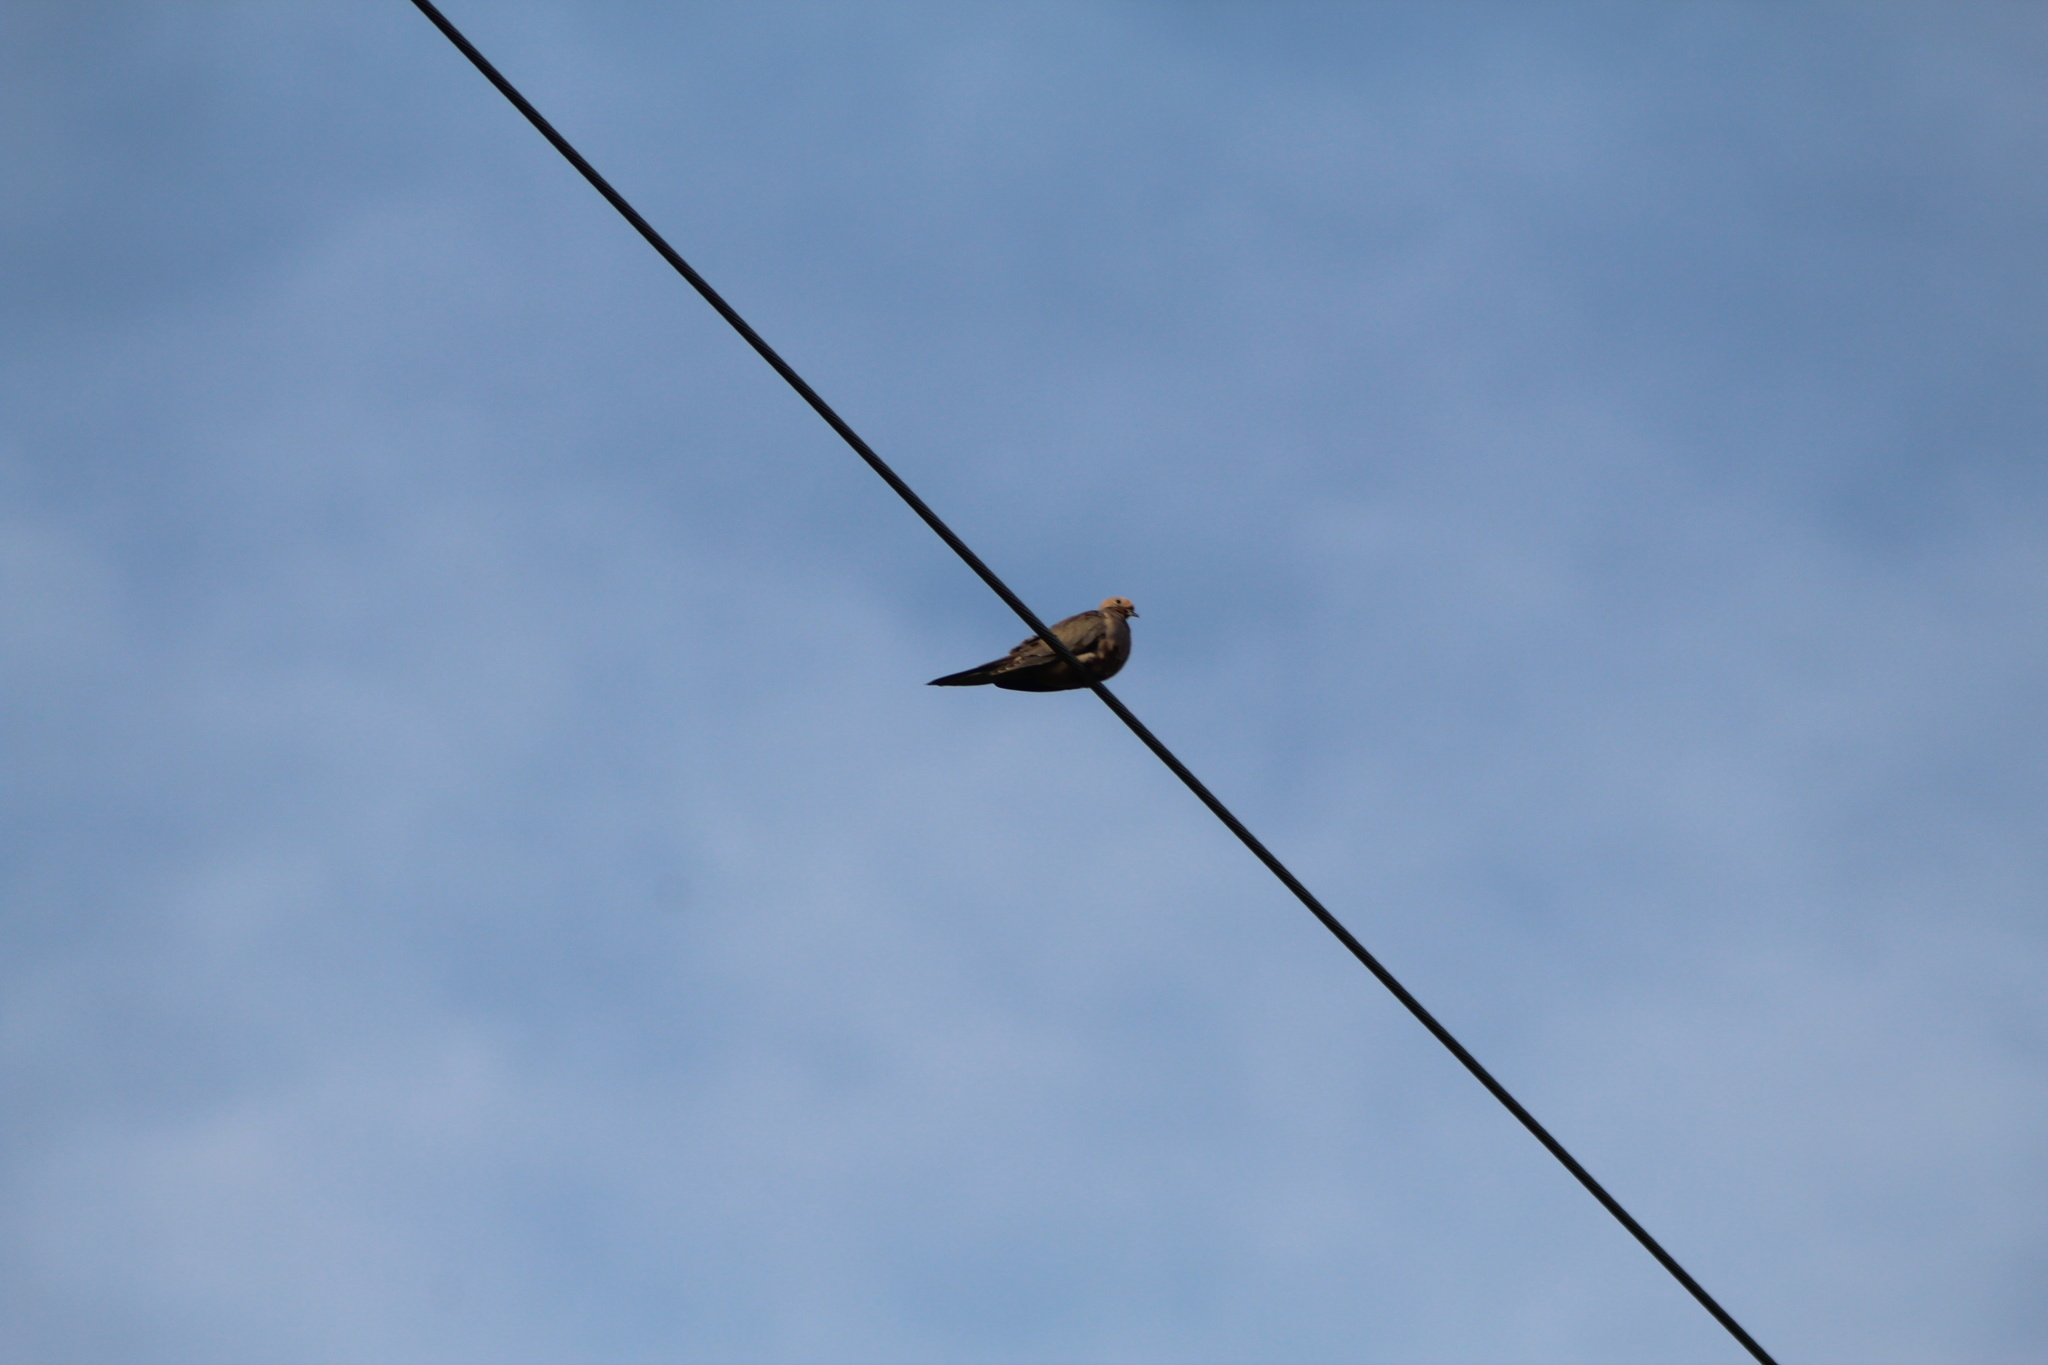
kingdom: Animalia
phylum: Chordata
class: Aves
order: Columbiformes
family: Columbidae
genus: Zenaida
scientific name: Zenaida macroura
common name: Mourning dove
